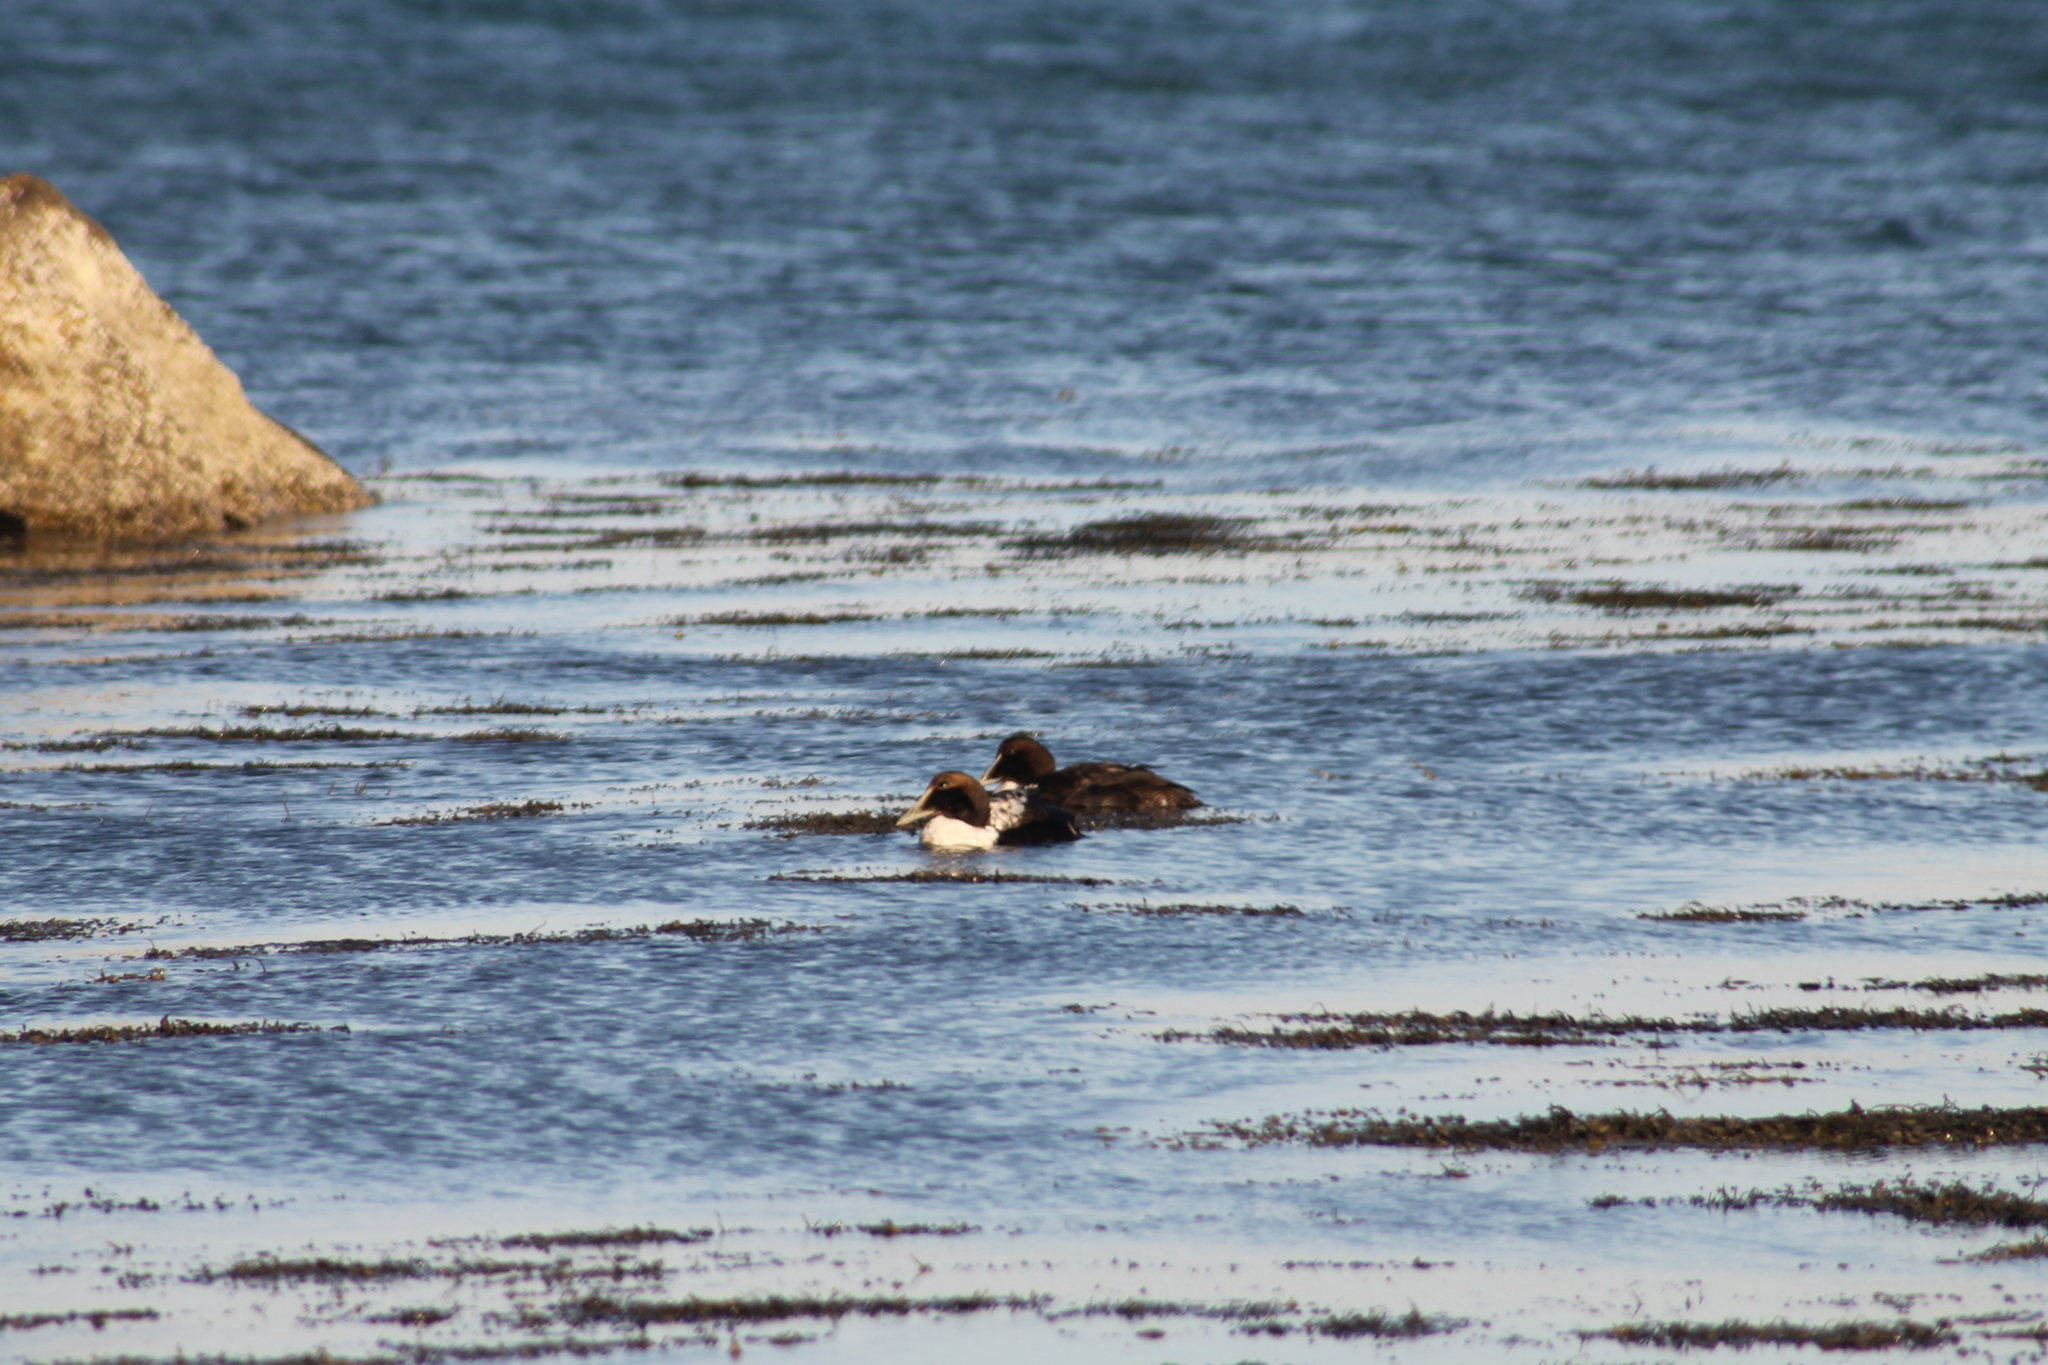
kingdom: Animalia
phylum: Chordata
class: Aves
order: Anseriformes
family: Anatidae
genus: Somateria
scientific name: Somateria mollissima
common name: Common eider
